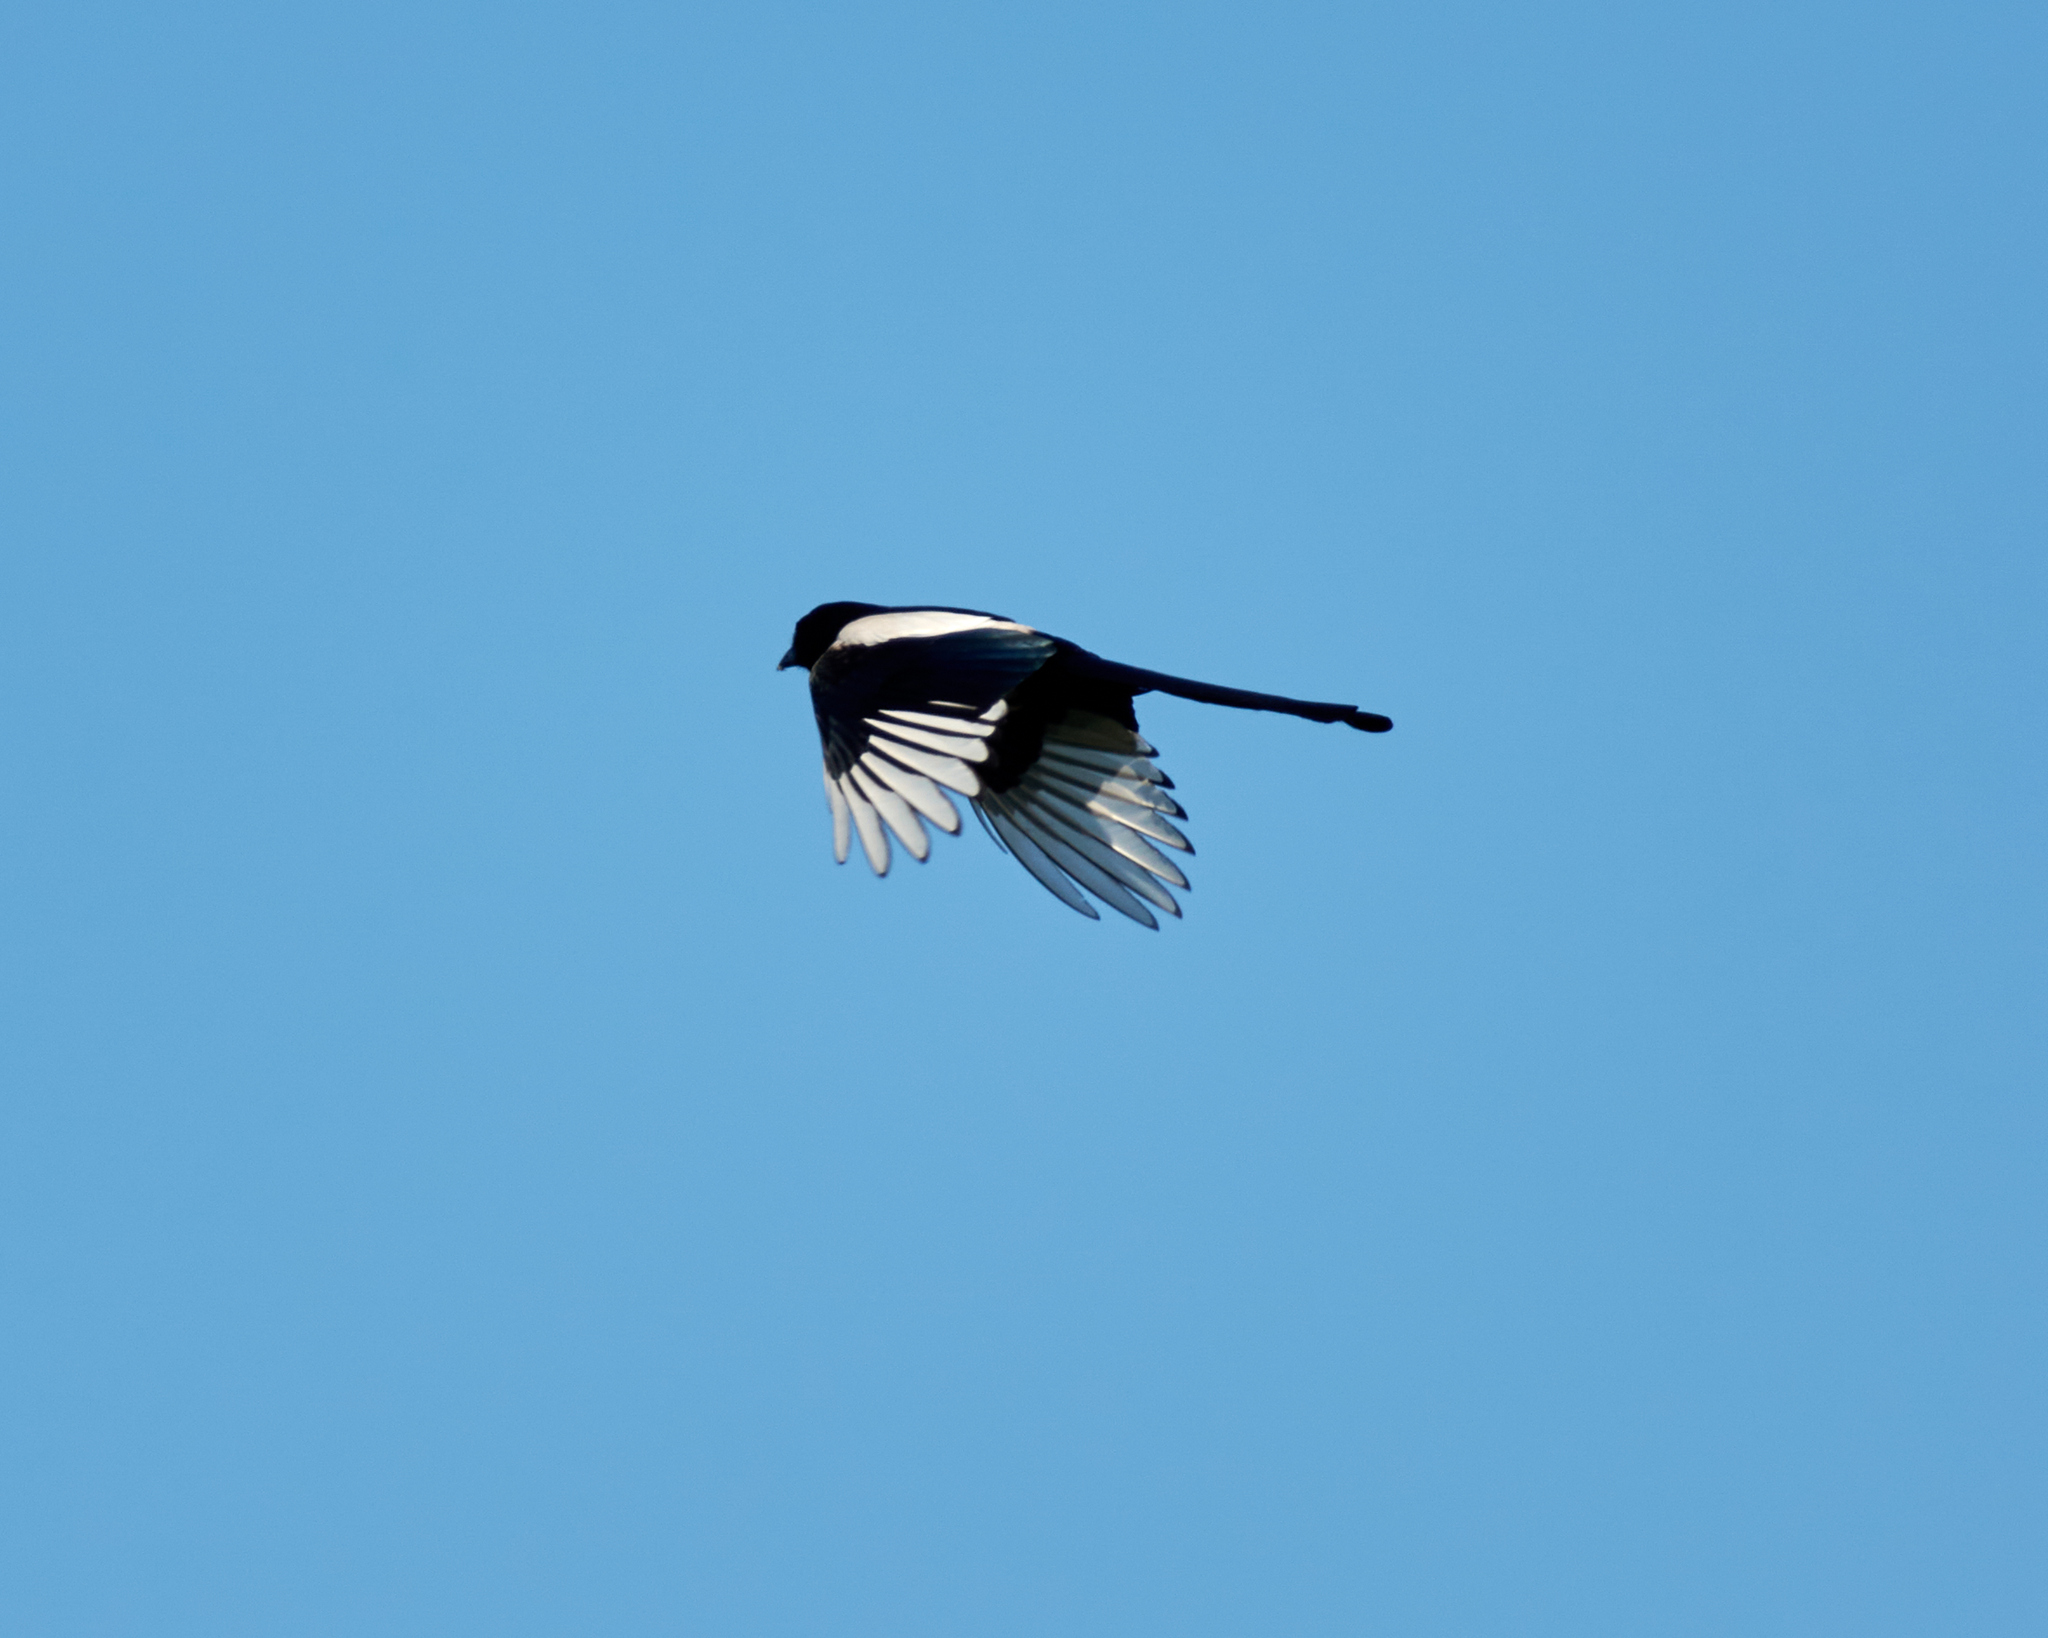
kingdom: Animalia
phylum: Chordata
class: Aves
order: Passeriformes
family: Corvidae
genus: Pica
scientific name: Pica pica
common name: Eurasian magpie
